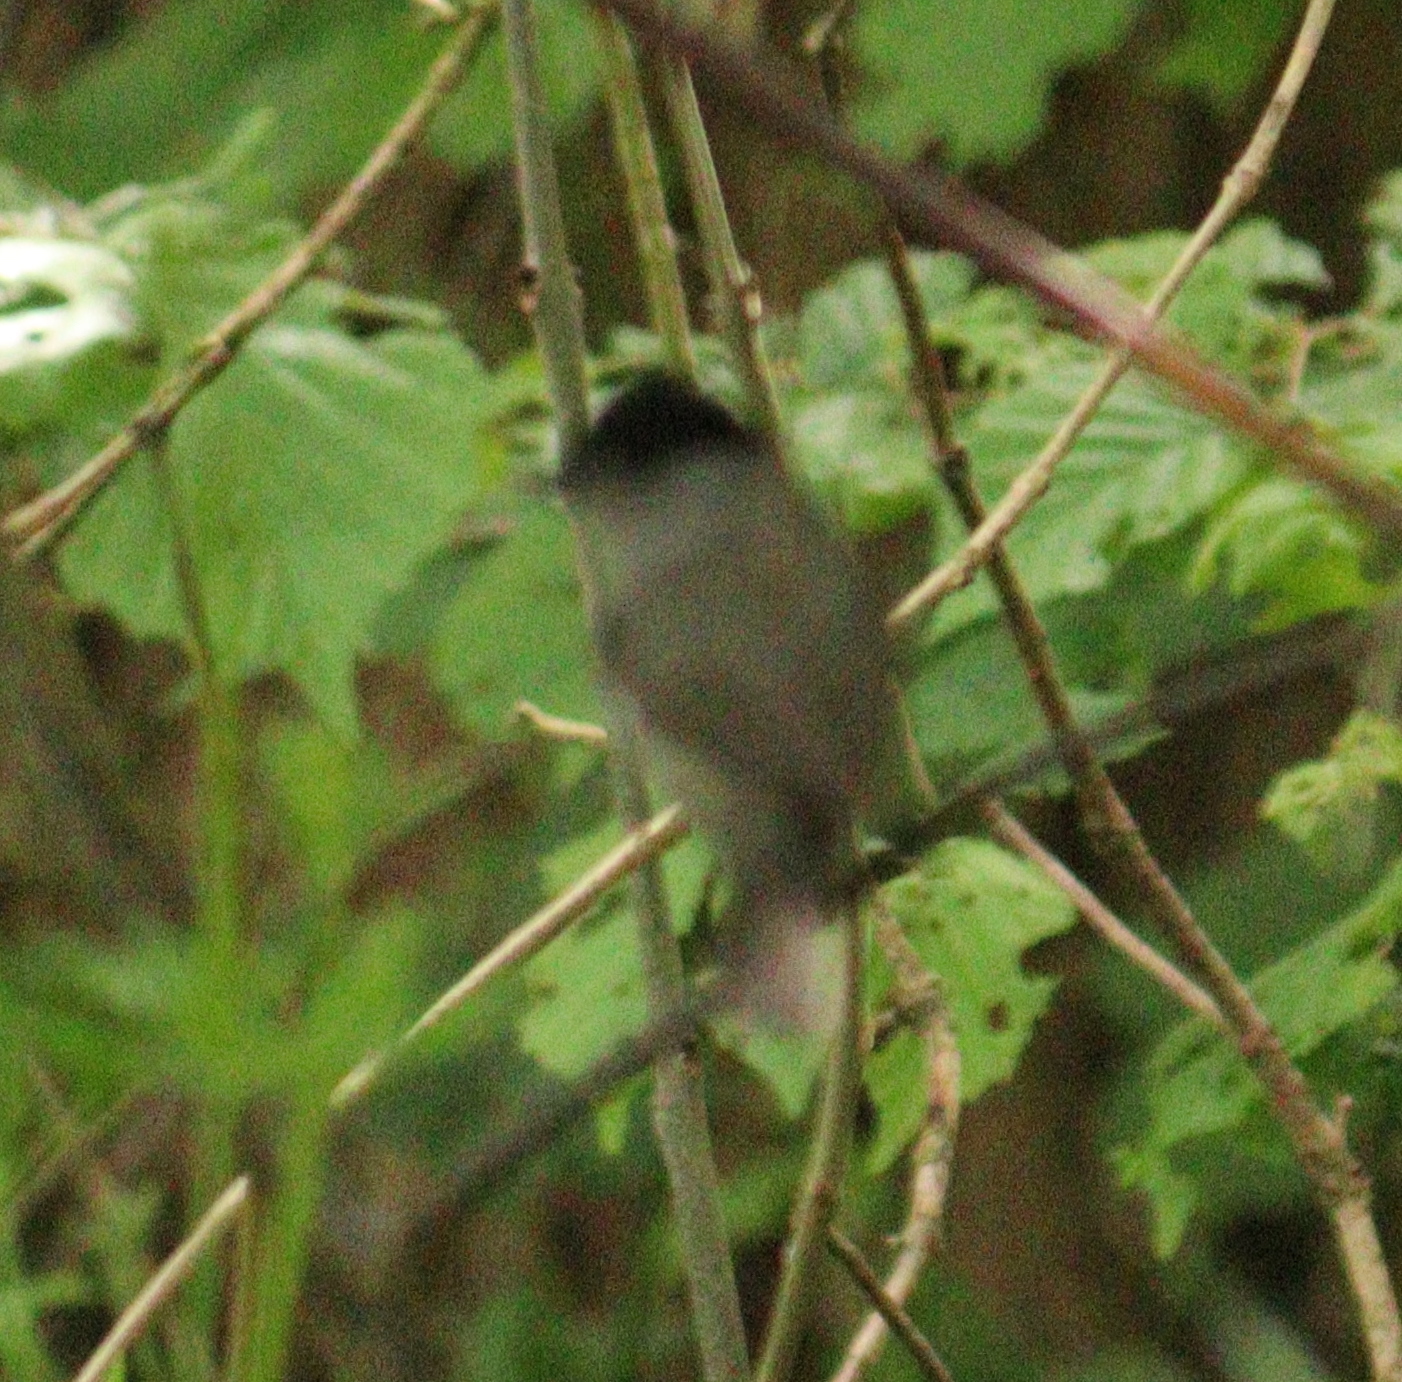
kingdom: Animalia
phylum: Chordata
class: Aves
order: Passeriformes
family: Sylviidae
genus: Sylvia
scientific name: Sylvia atricapilla
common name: Eurasian blackcap
